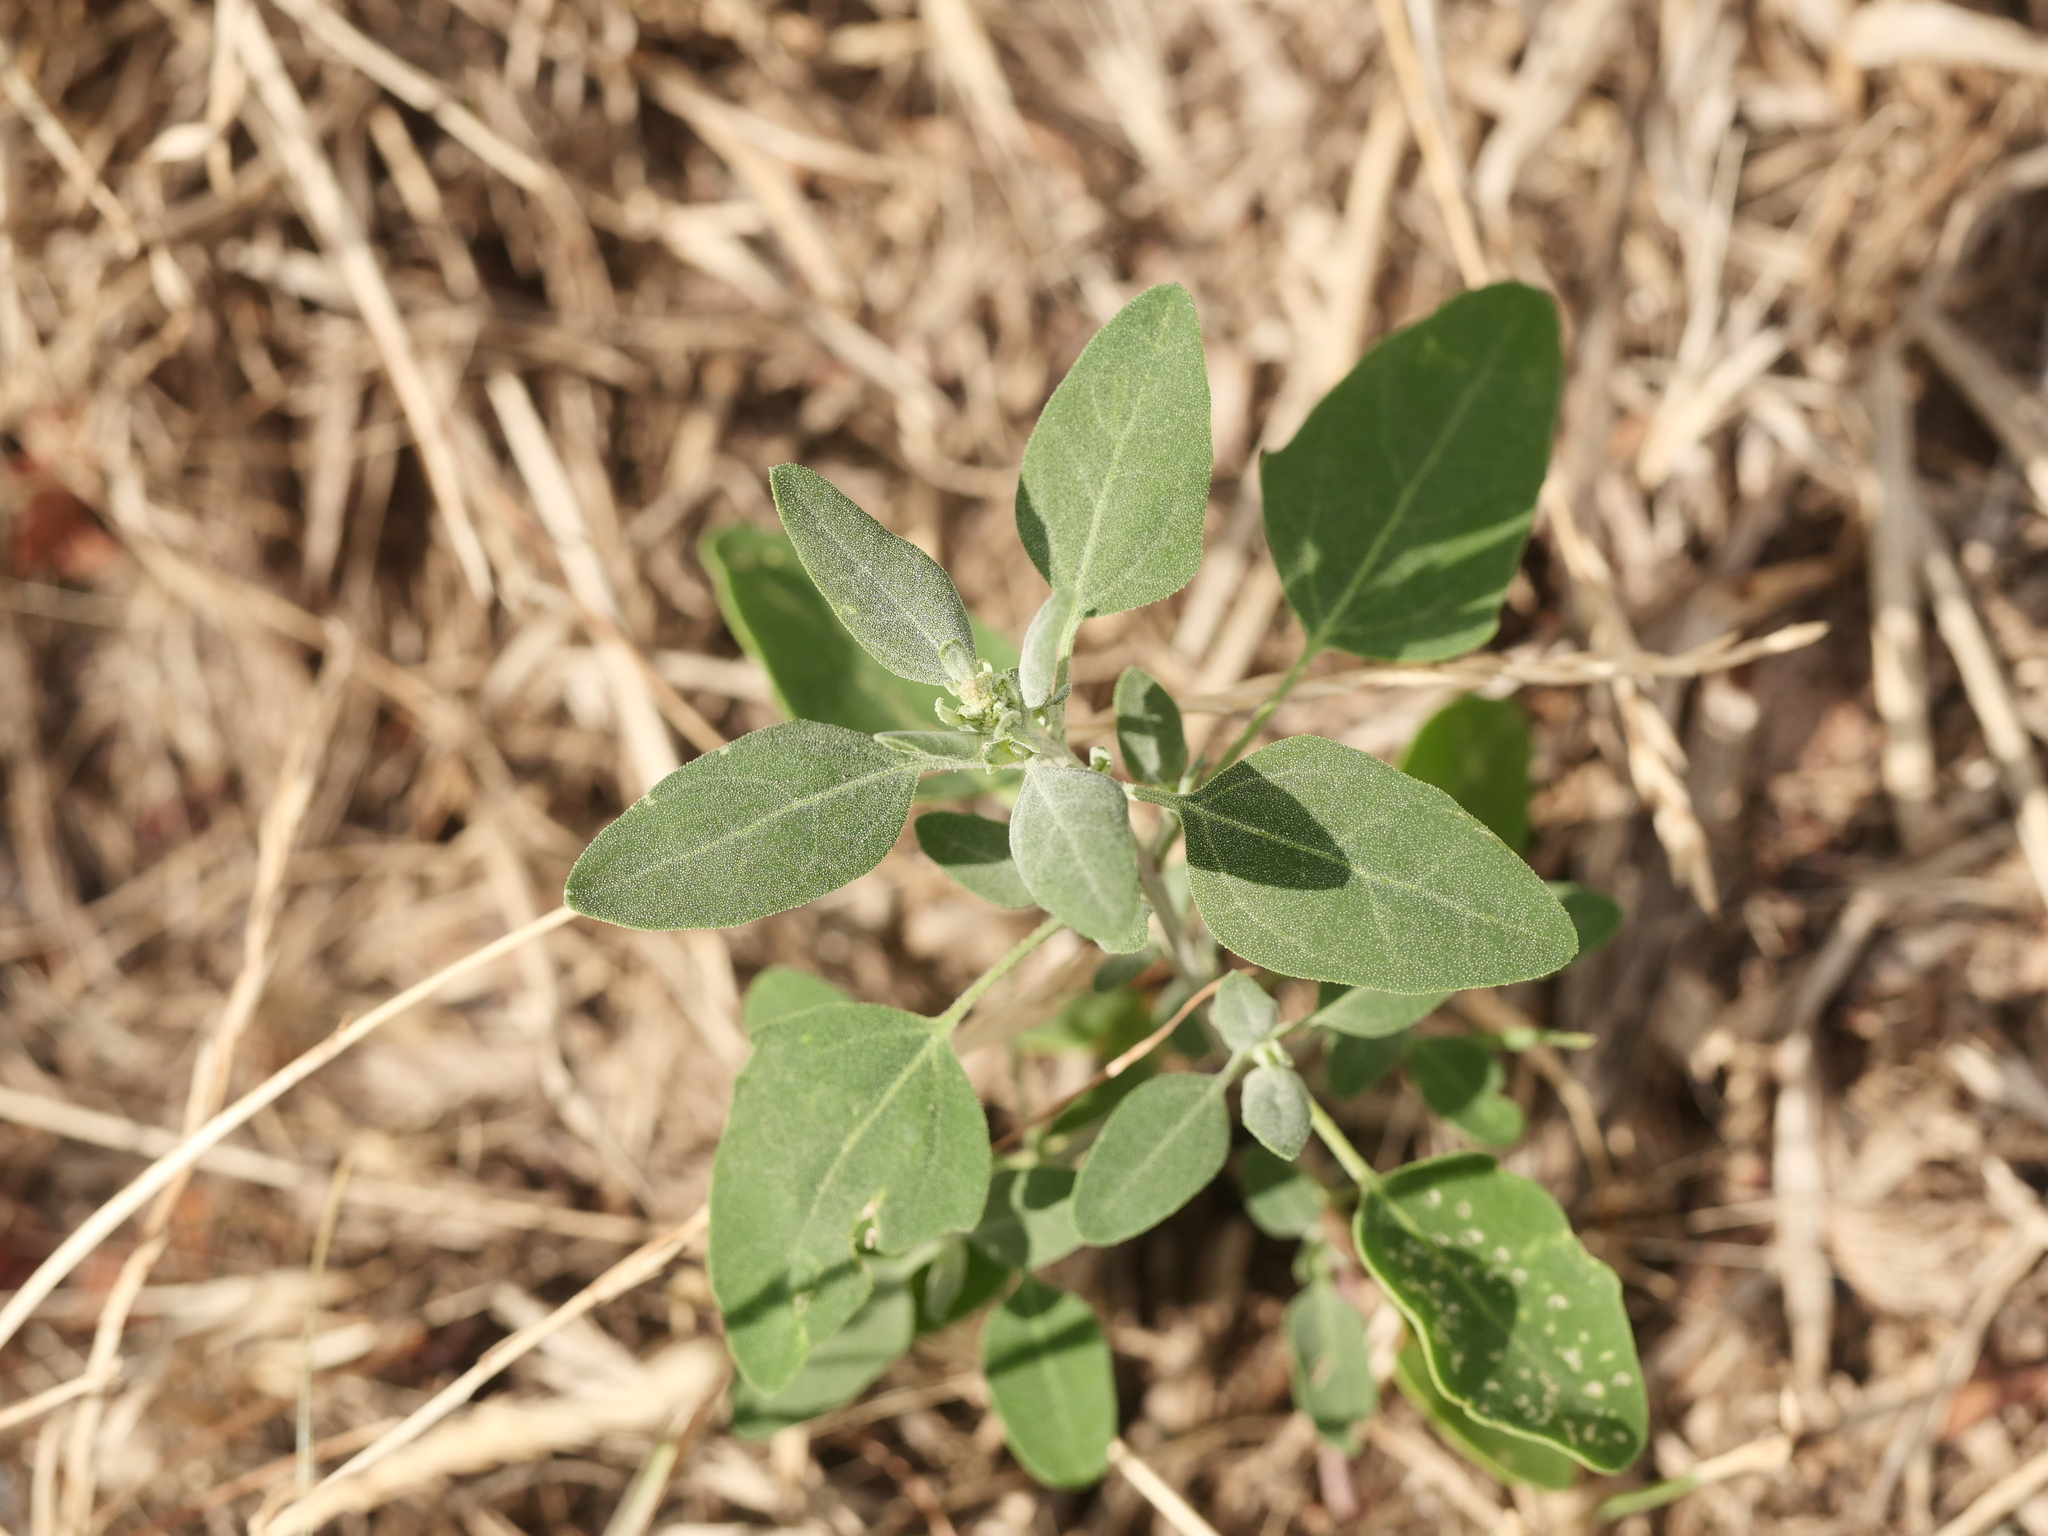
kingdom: Plantae
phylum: Tracheophyta
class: Magnoliopsida
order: Caryophyllales
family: Amaranthaceae
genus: Chenopodium
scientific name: Chenopodium album
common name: Fat-hen
